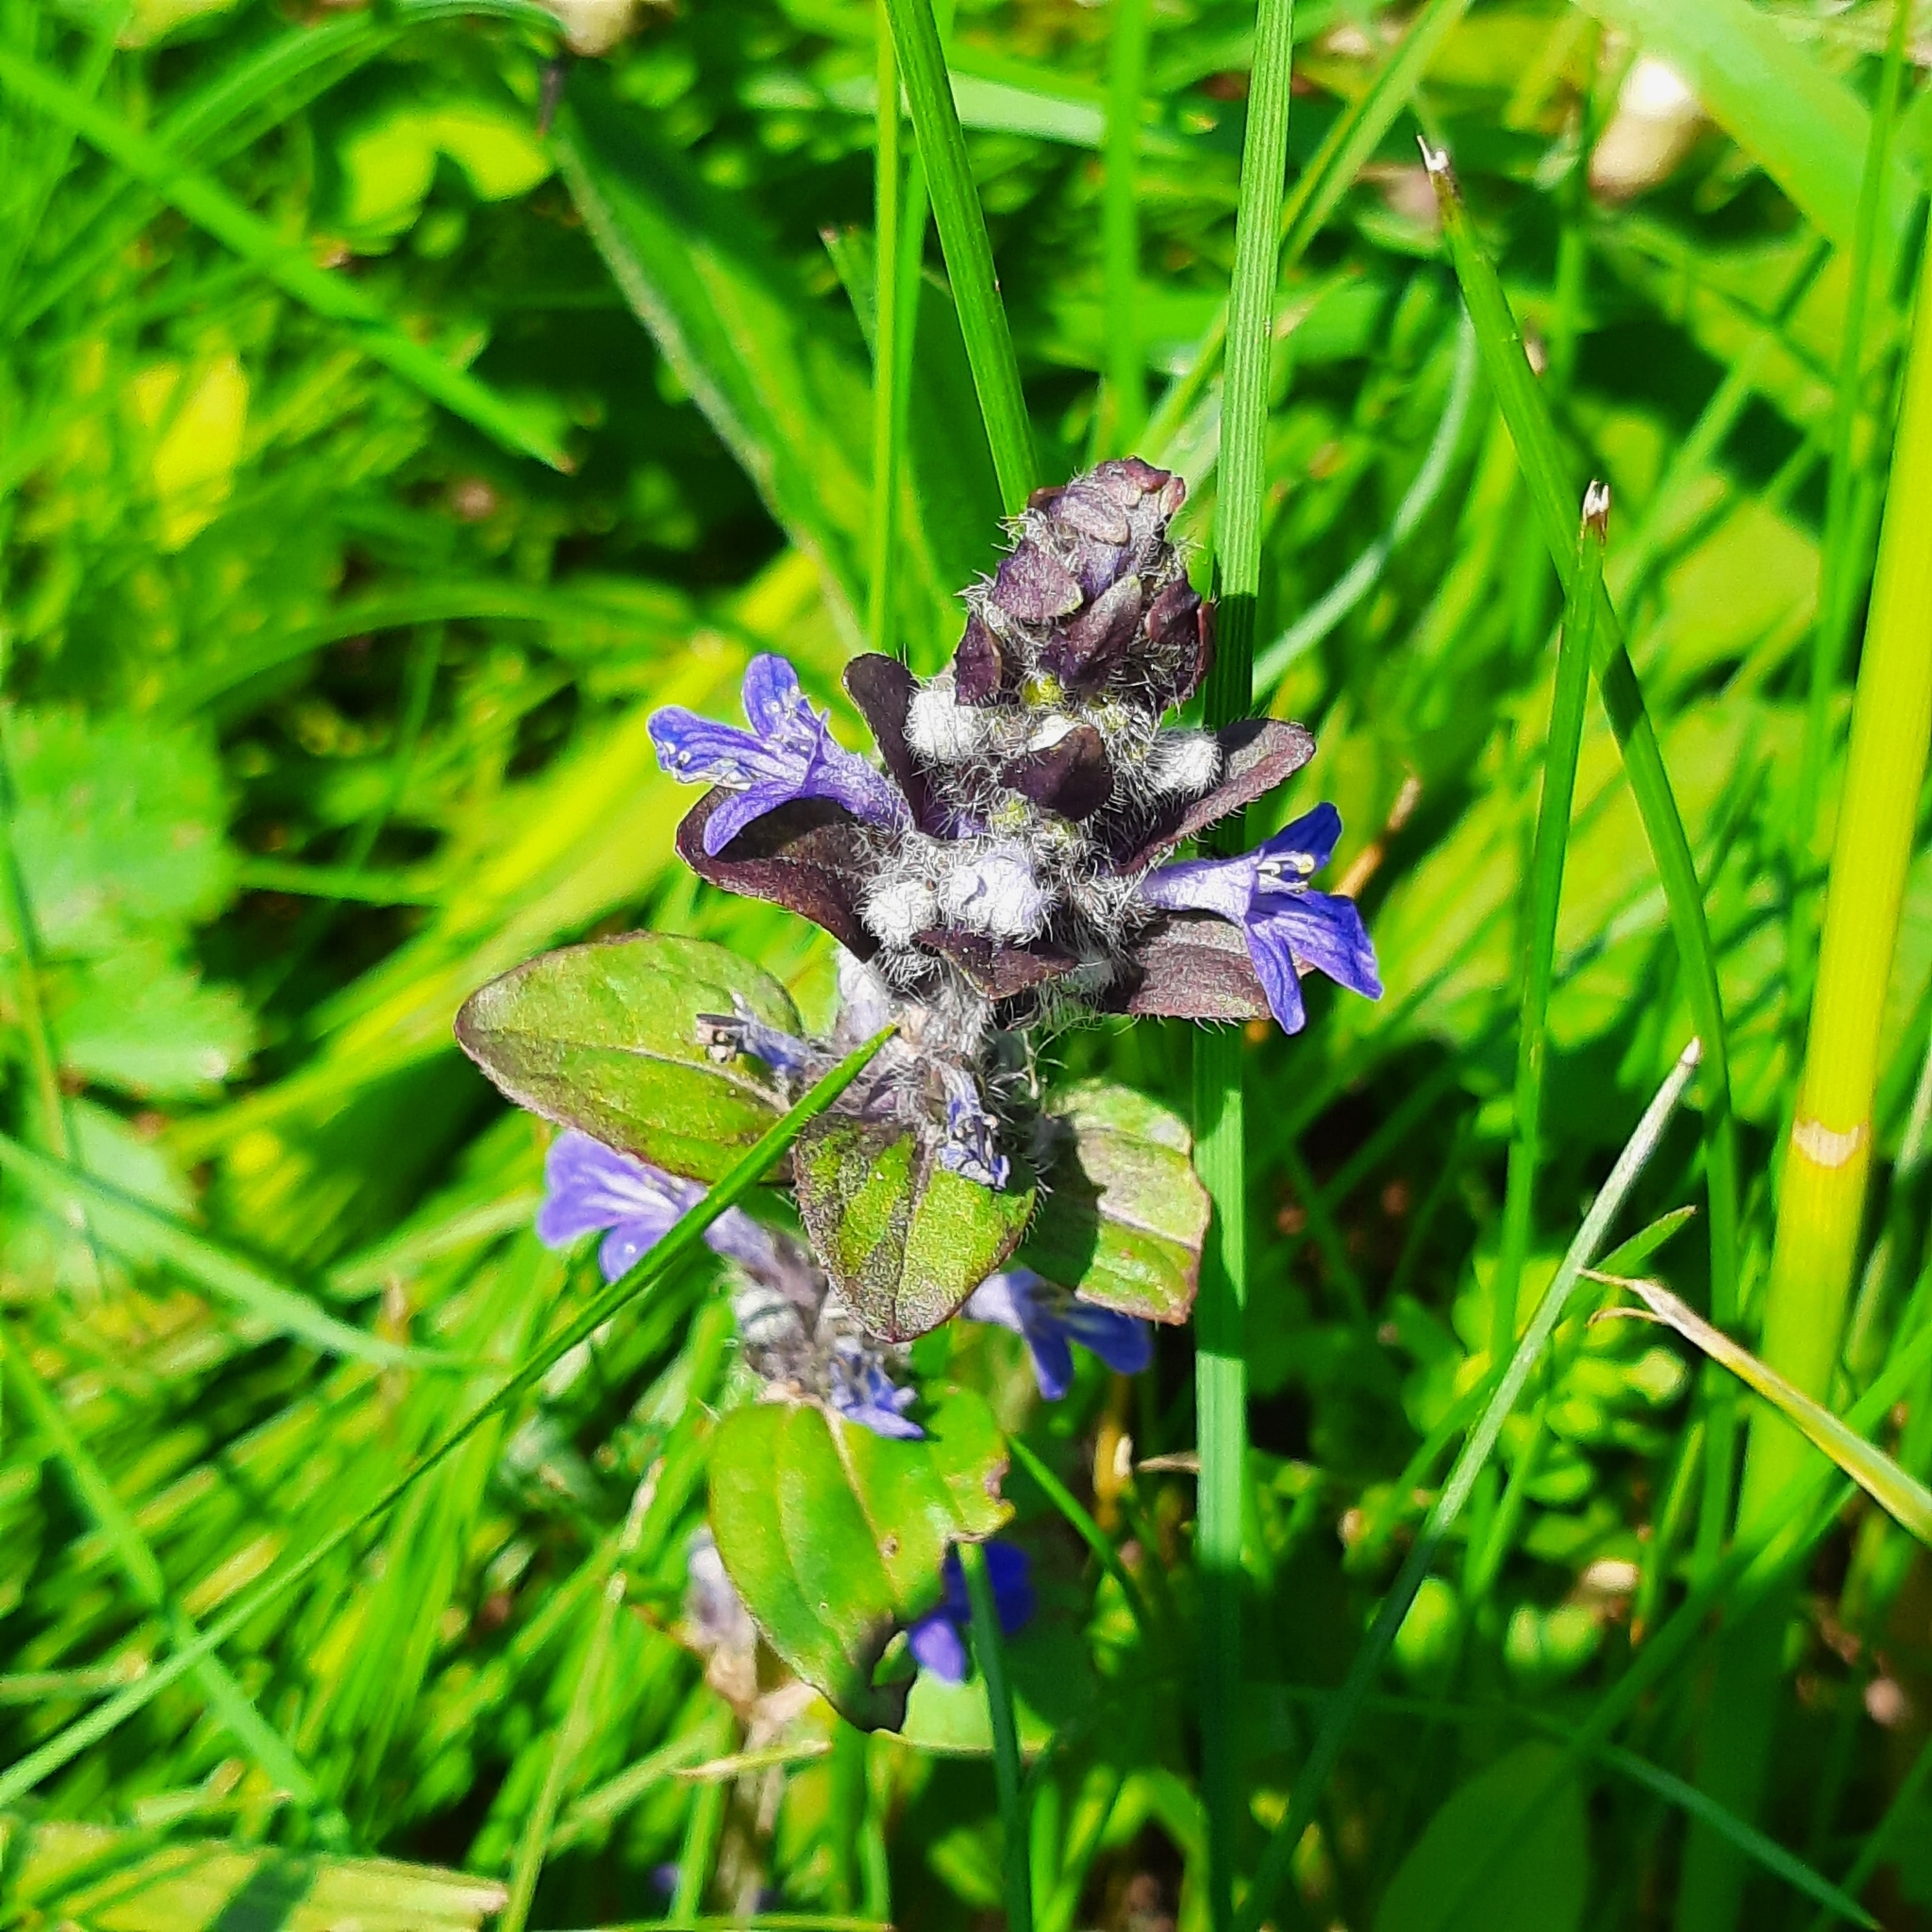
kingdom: Plantae
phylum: Tracheophyta
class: Magnoliopsida
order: Lamiales
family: Lamiaceae
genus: Ajuga
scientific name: Ajuga reptans
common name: Bugle
